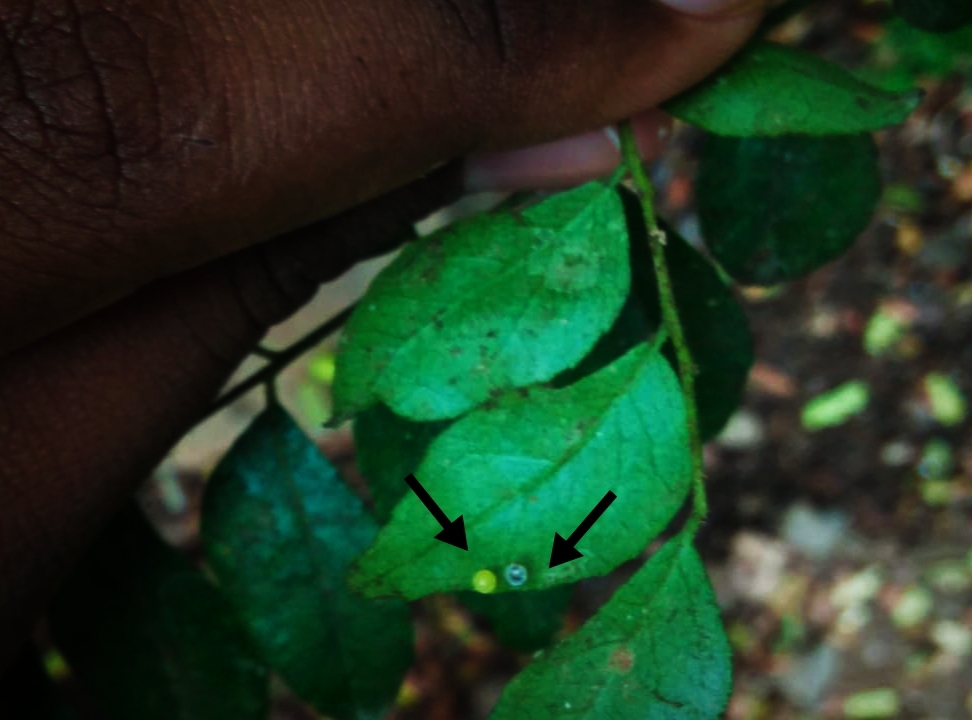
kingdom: Animalia
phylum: Arthropoda
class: Insecta
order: Lepidoptera
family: Papilionidae
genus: Papilio
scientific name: Papilio polytes
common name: Common mormon
